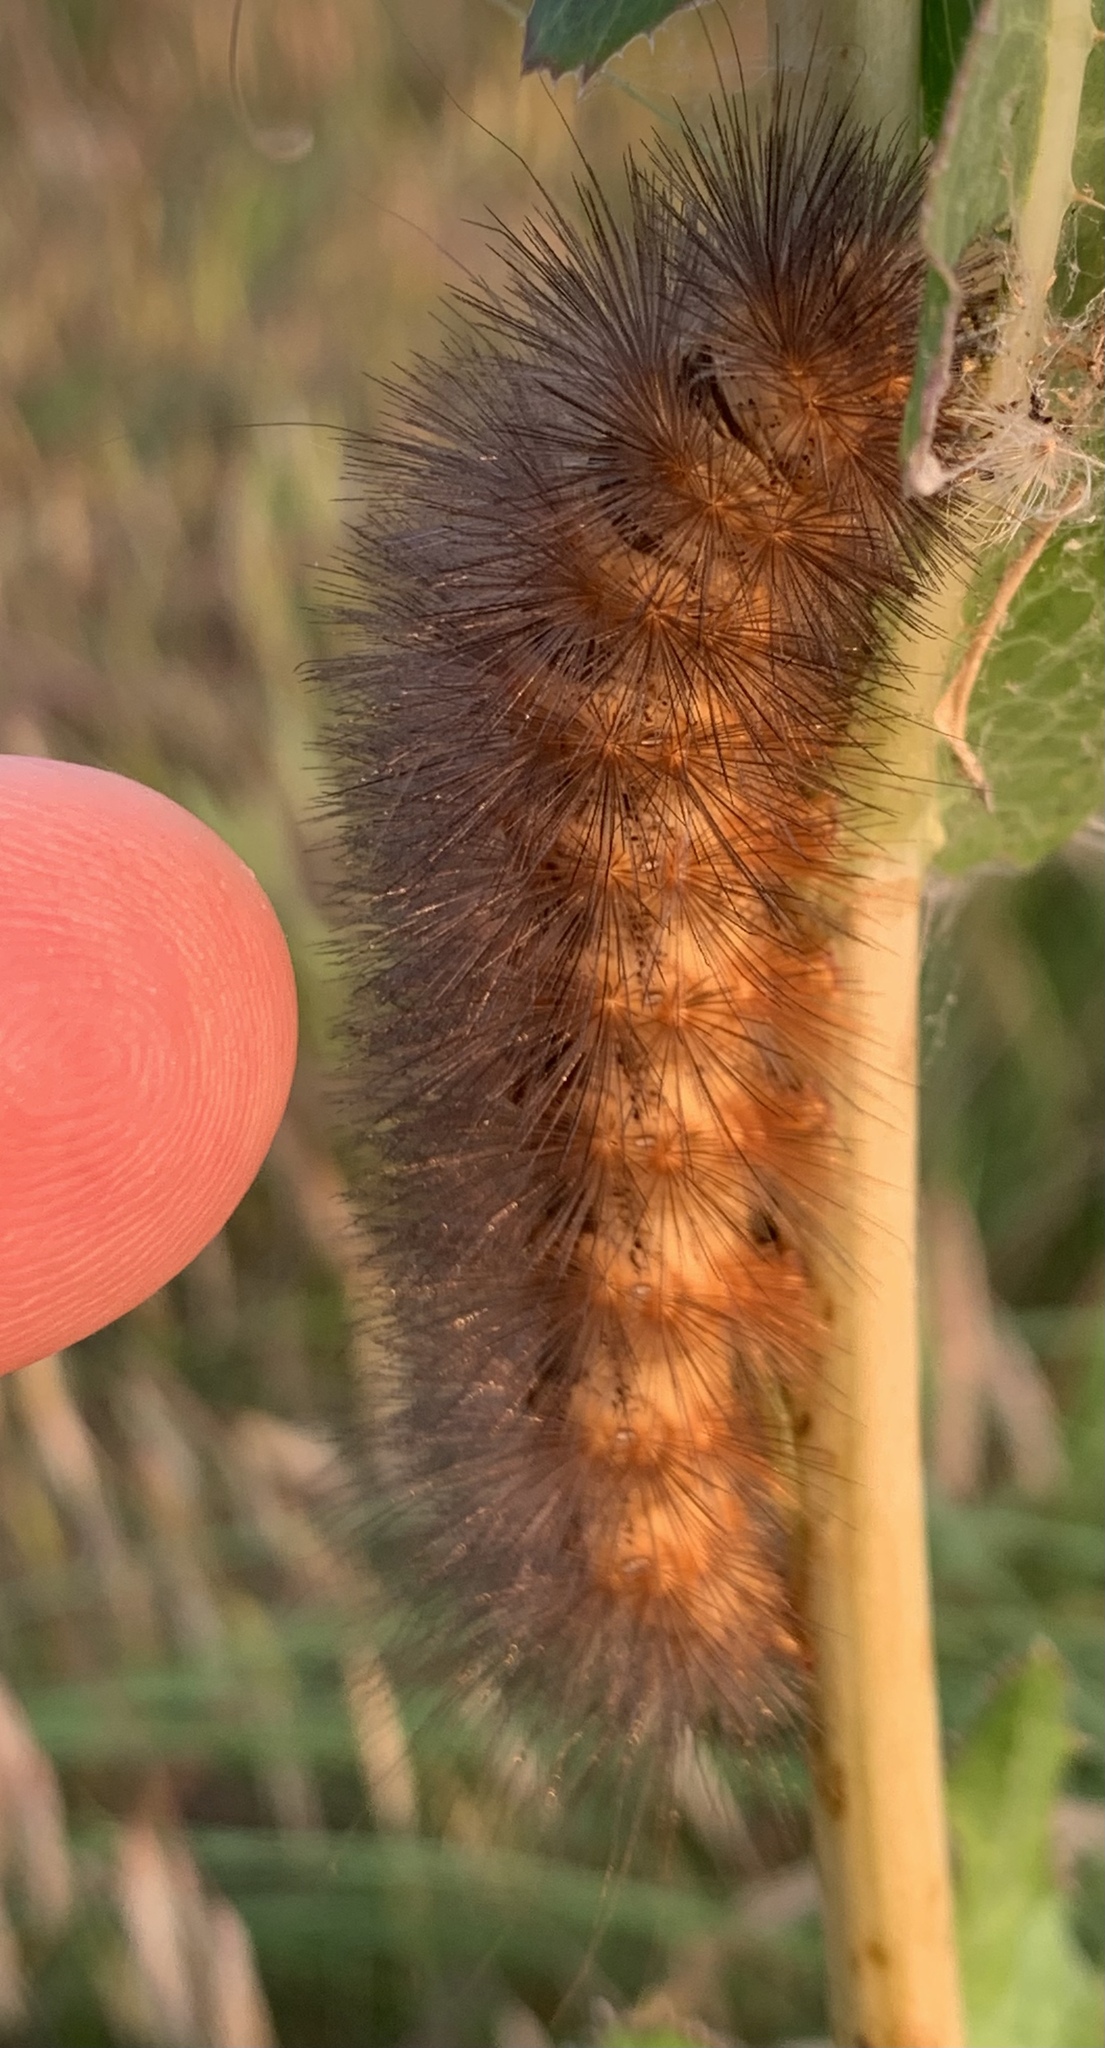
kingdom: Animalia
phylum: Arthropoda
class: Insecta
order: Lepidoptera
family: Erebidae
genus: Estigmene
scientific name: Estigmene acrea
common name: Salt marsh moth
